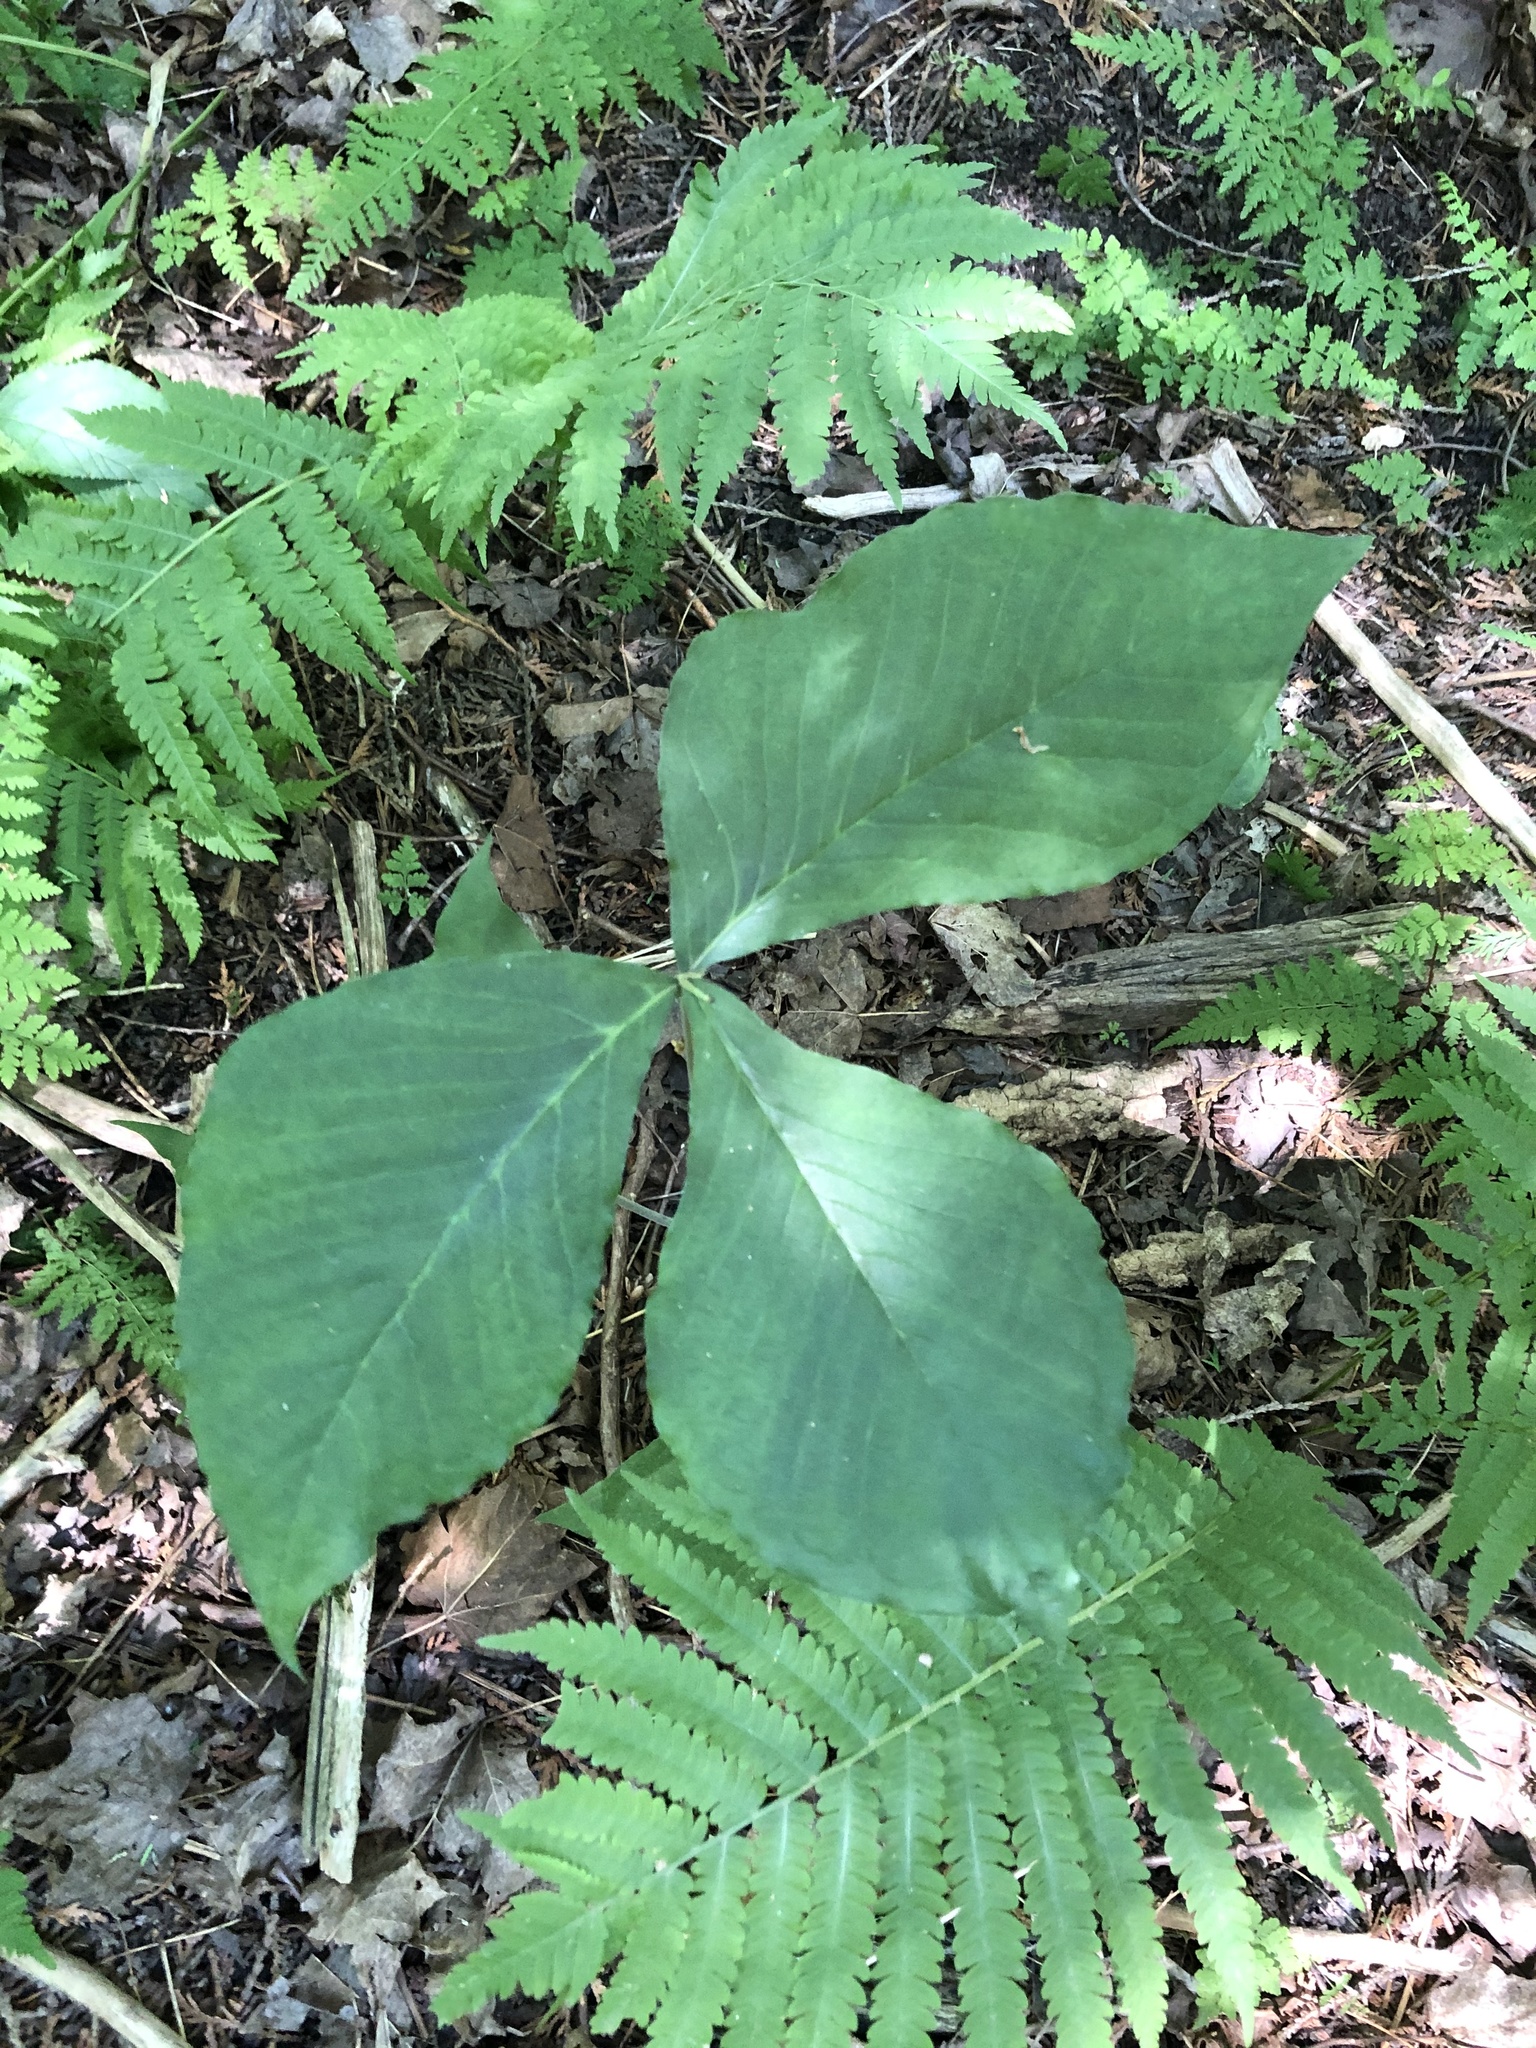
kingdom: Plantae
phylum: Tracheophyta
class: Liliopsida
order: Alismatales
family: Araceae
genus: Arisaema
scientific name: Arisaema triphyllum
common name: Jack-in-the-pulpit
